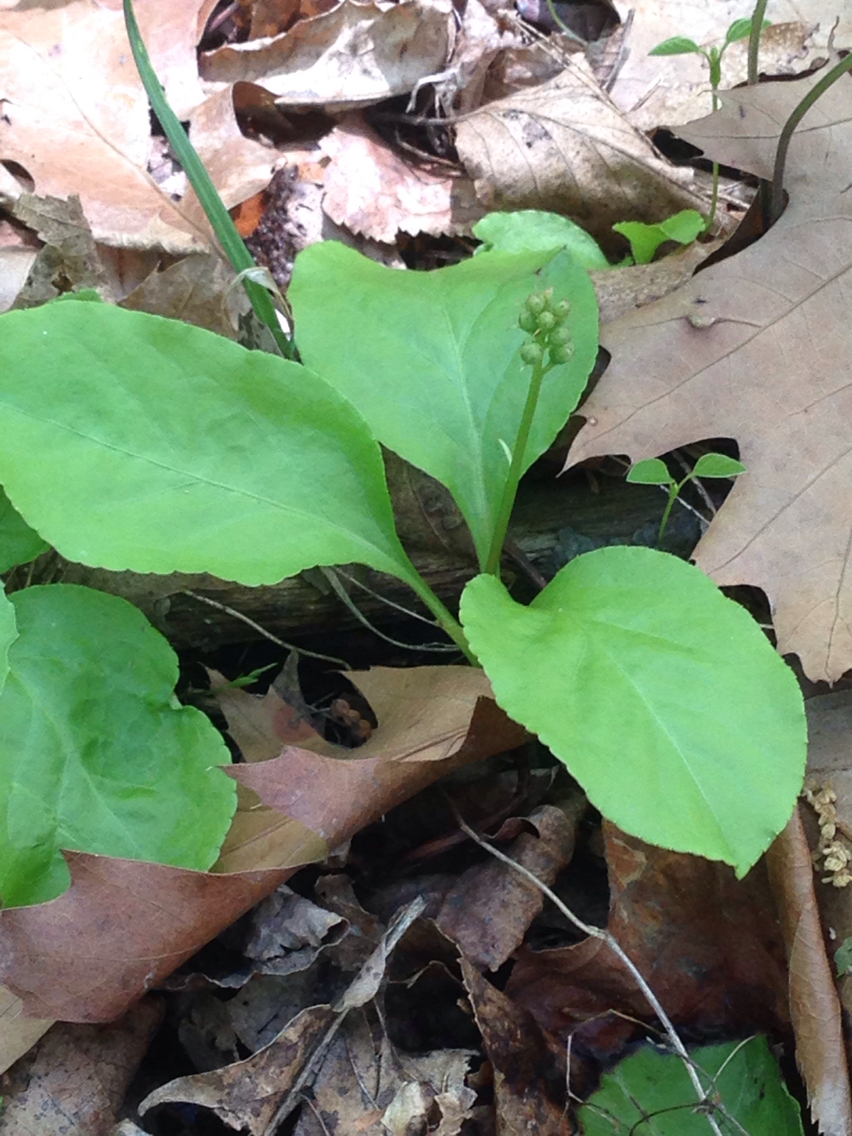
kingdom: Plantae
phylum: Tracheophyta
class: Magnoliopsida
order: Ericales
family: Ericaceae
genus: Pyrola
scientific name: Pyrola elliptica
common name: Shinleaf
